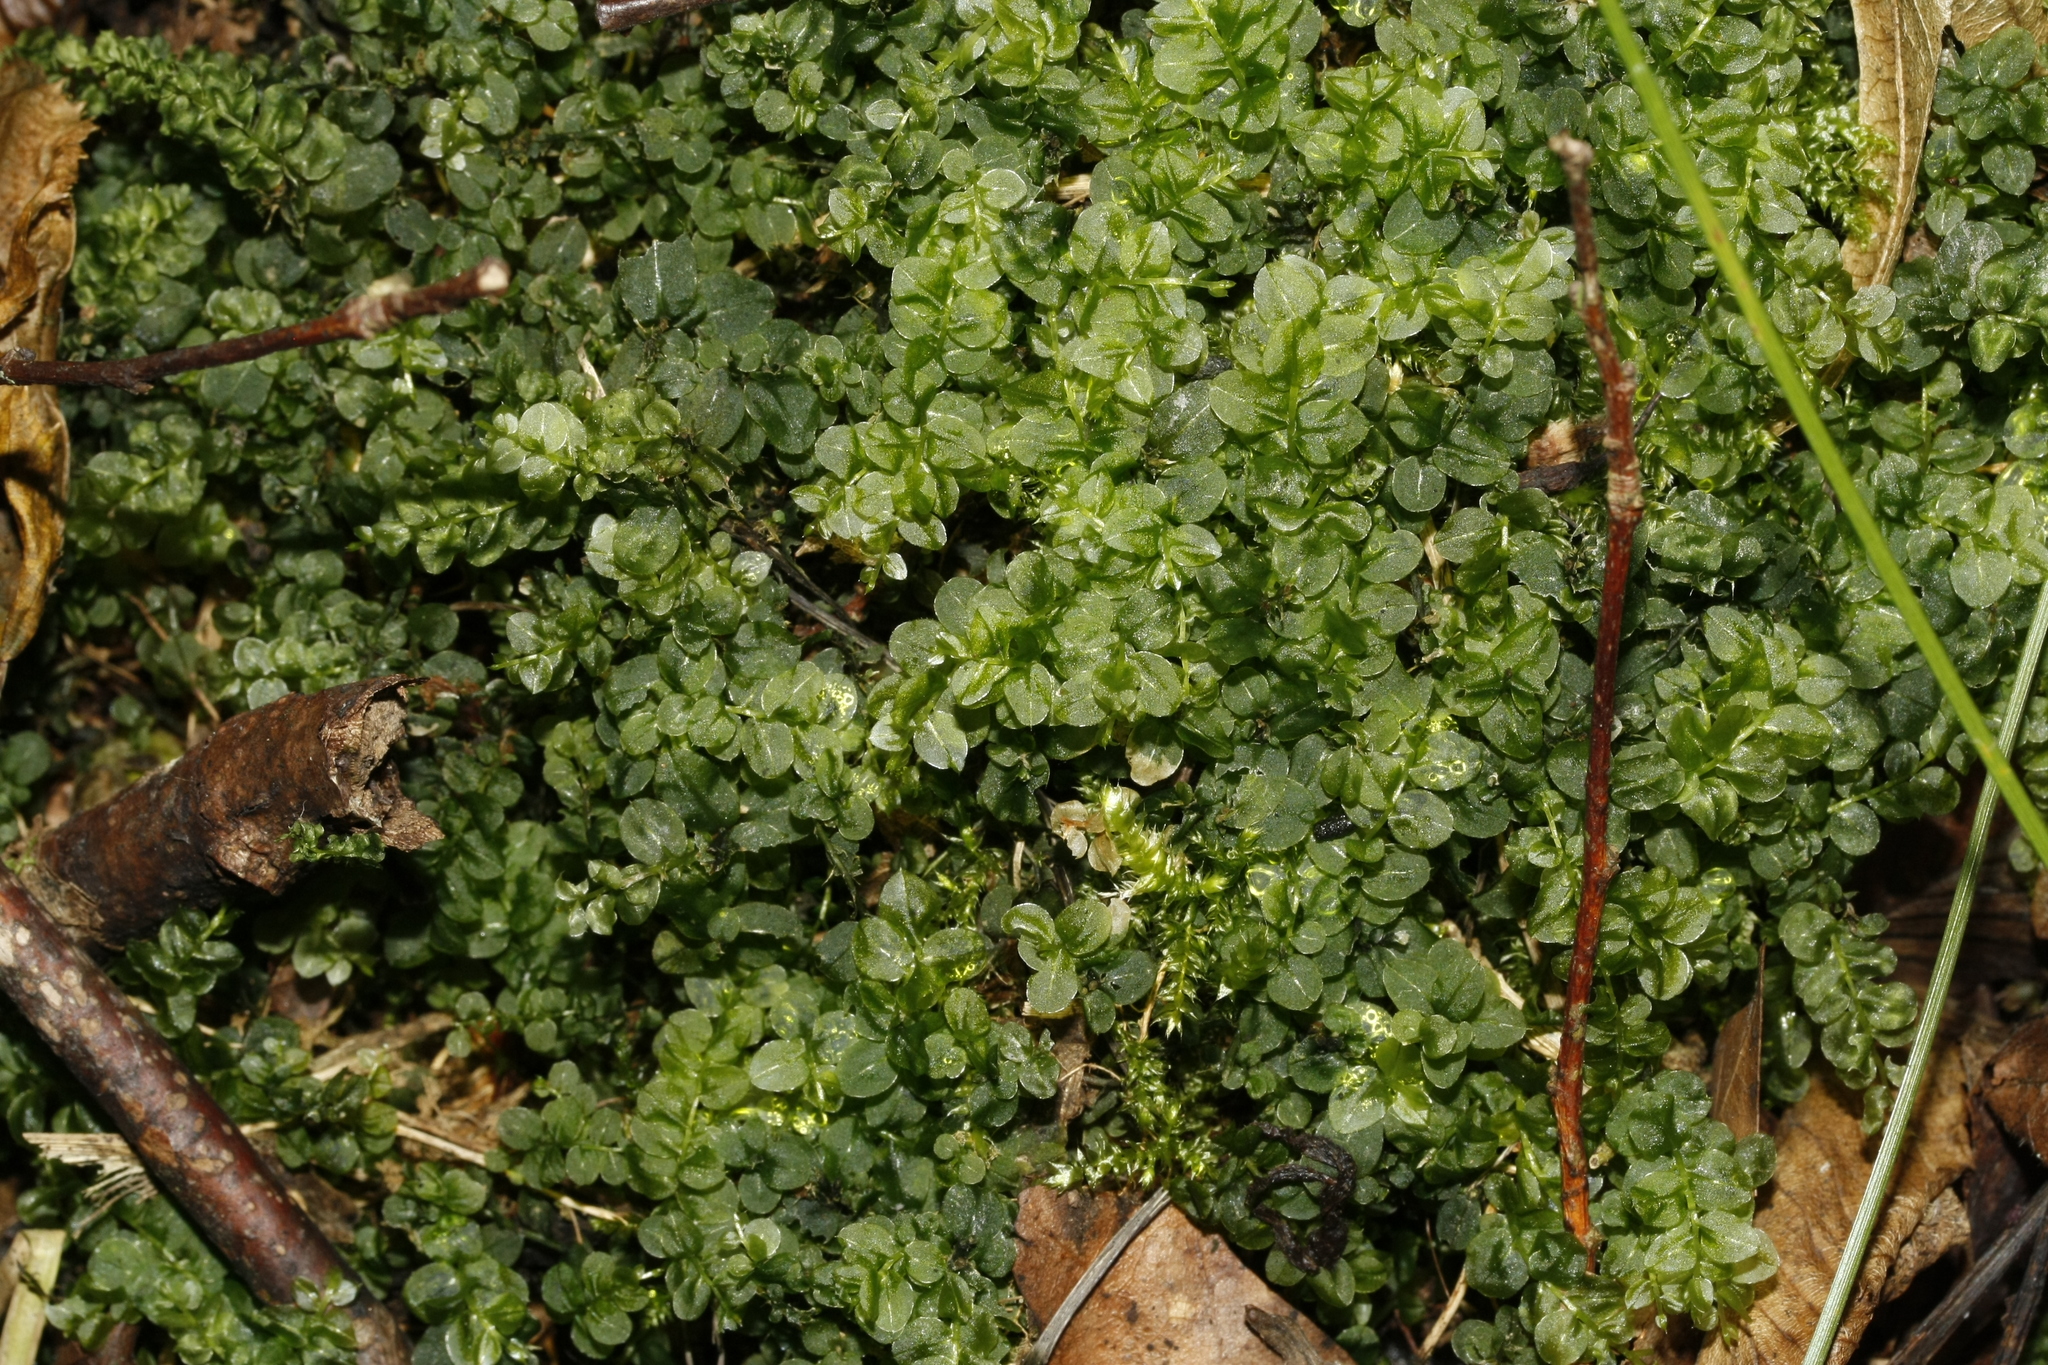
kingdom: Plantae
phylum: Bryophyta
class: Bryopsida
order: Bryales
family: Mniaceae
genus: Plagiomnium
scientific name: Plagiomnium affine
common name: Many-fruited thyme-moss
